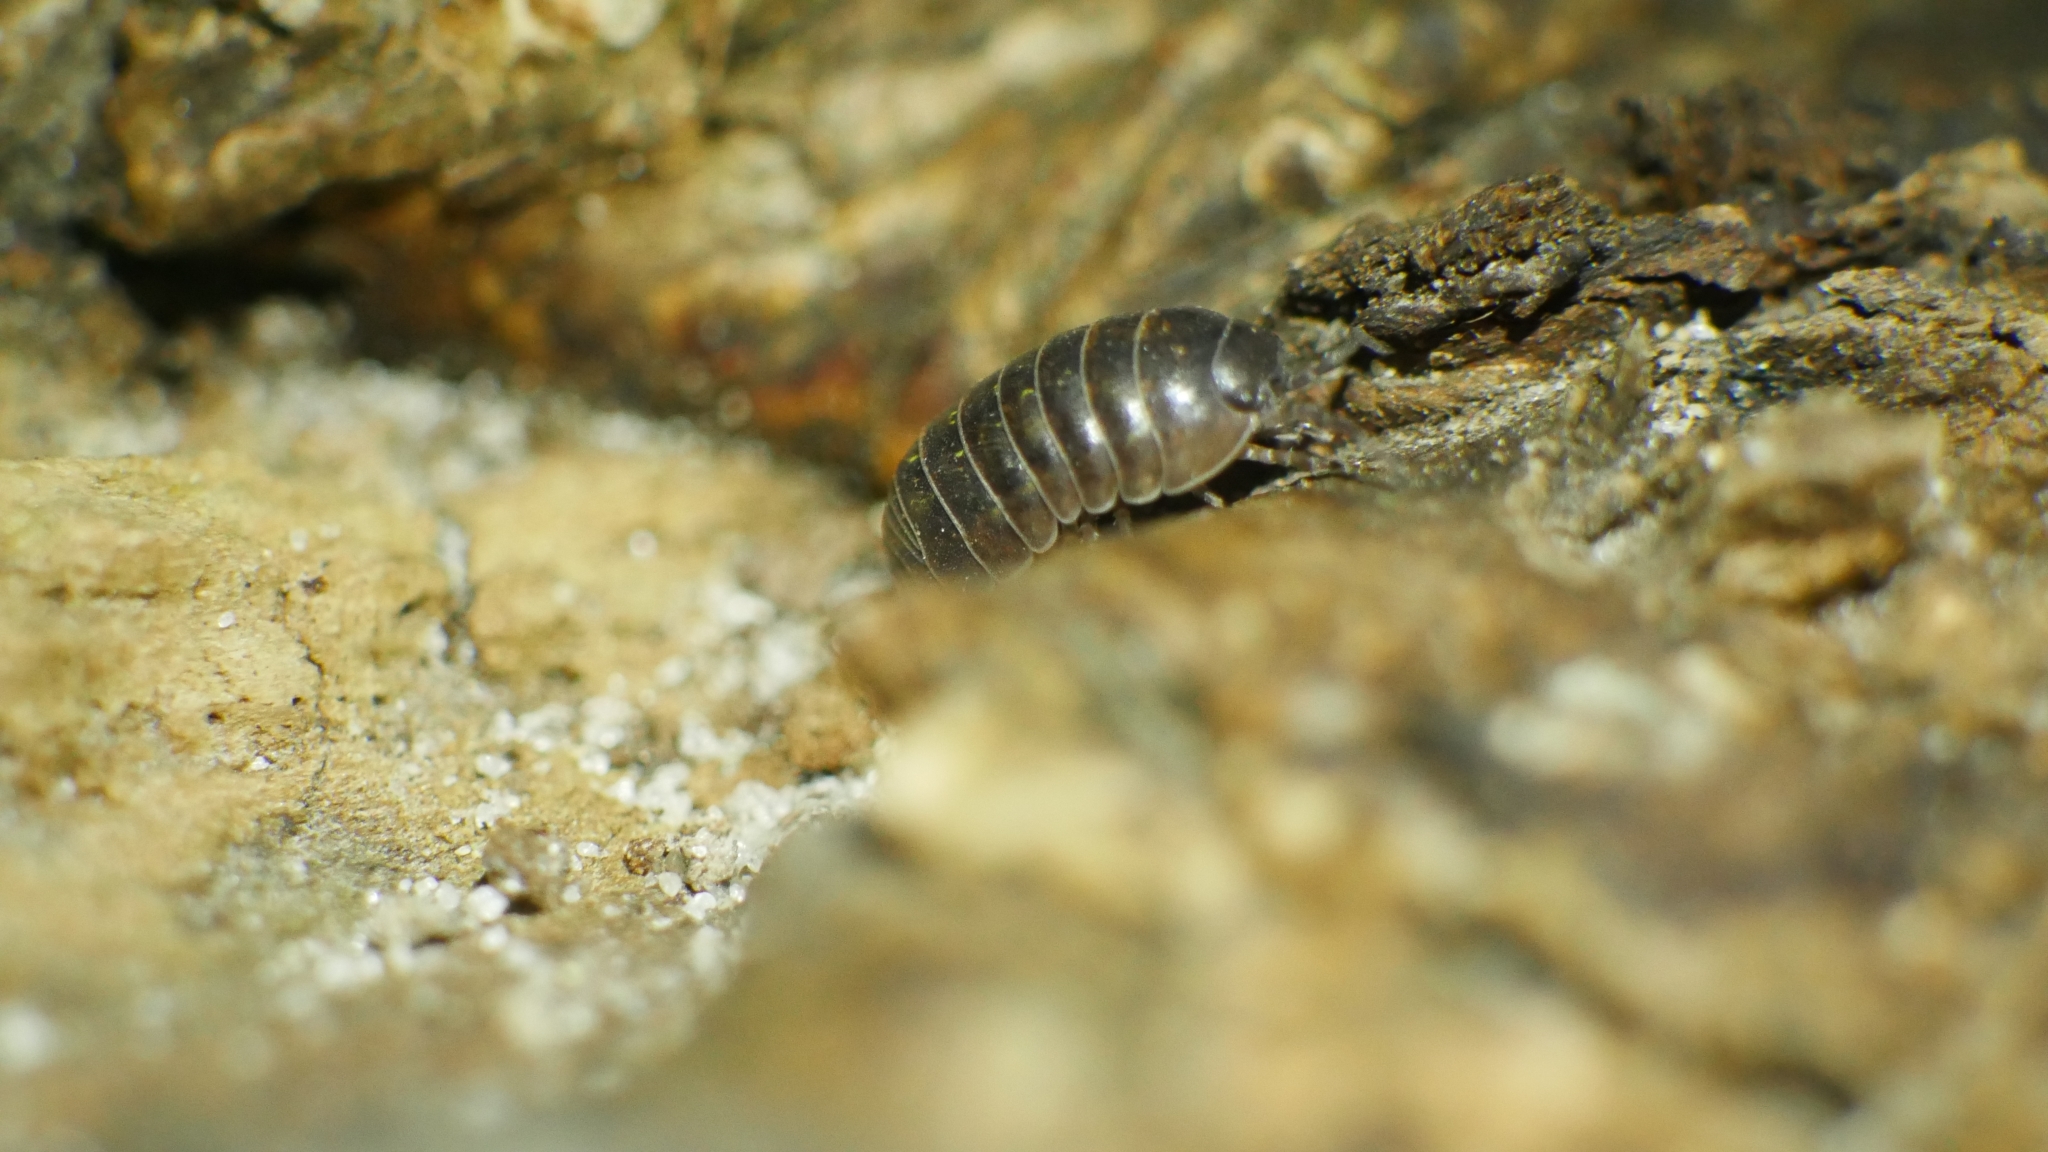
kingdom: Animalia
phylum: Arthropoda
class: Malacostraca
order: Isopoda
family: Armadillidiidae
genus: Armadillidium
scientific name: Armadillidium vulgare
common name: Common pill woodlouse
